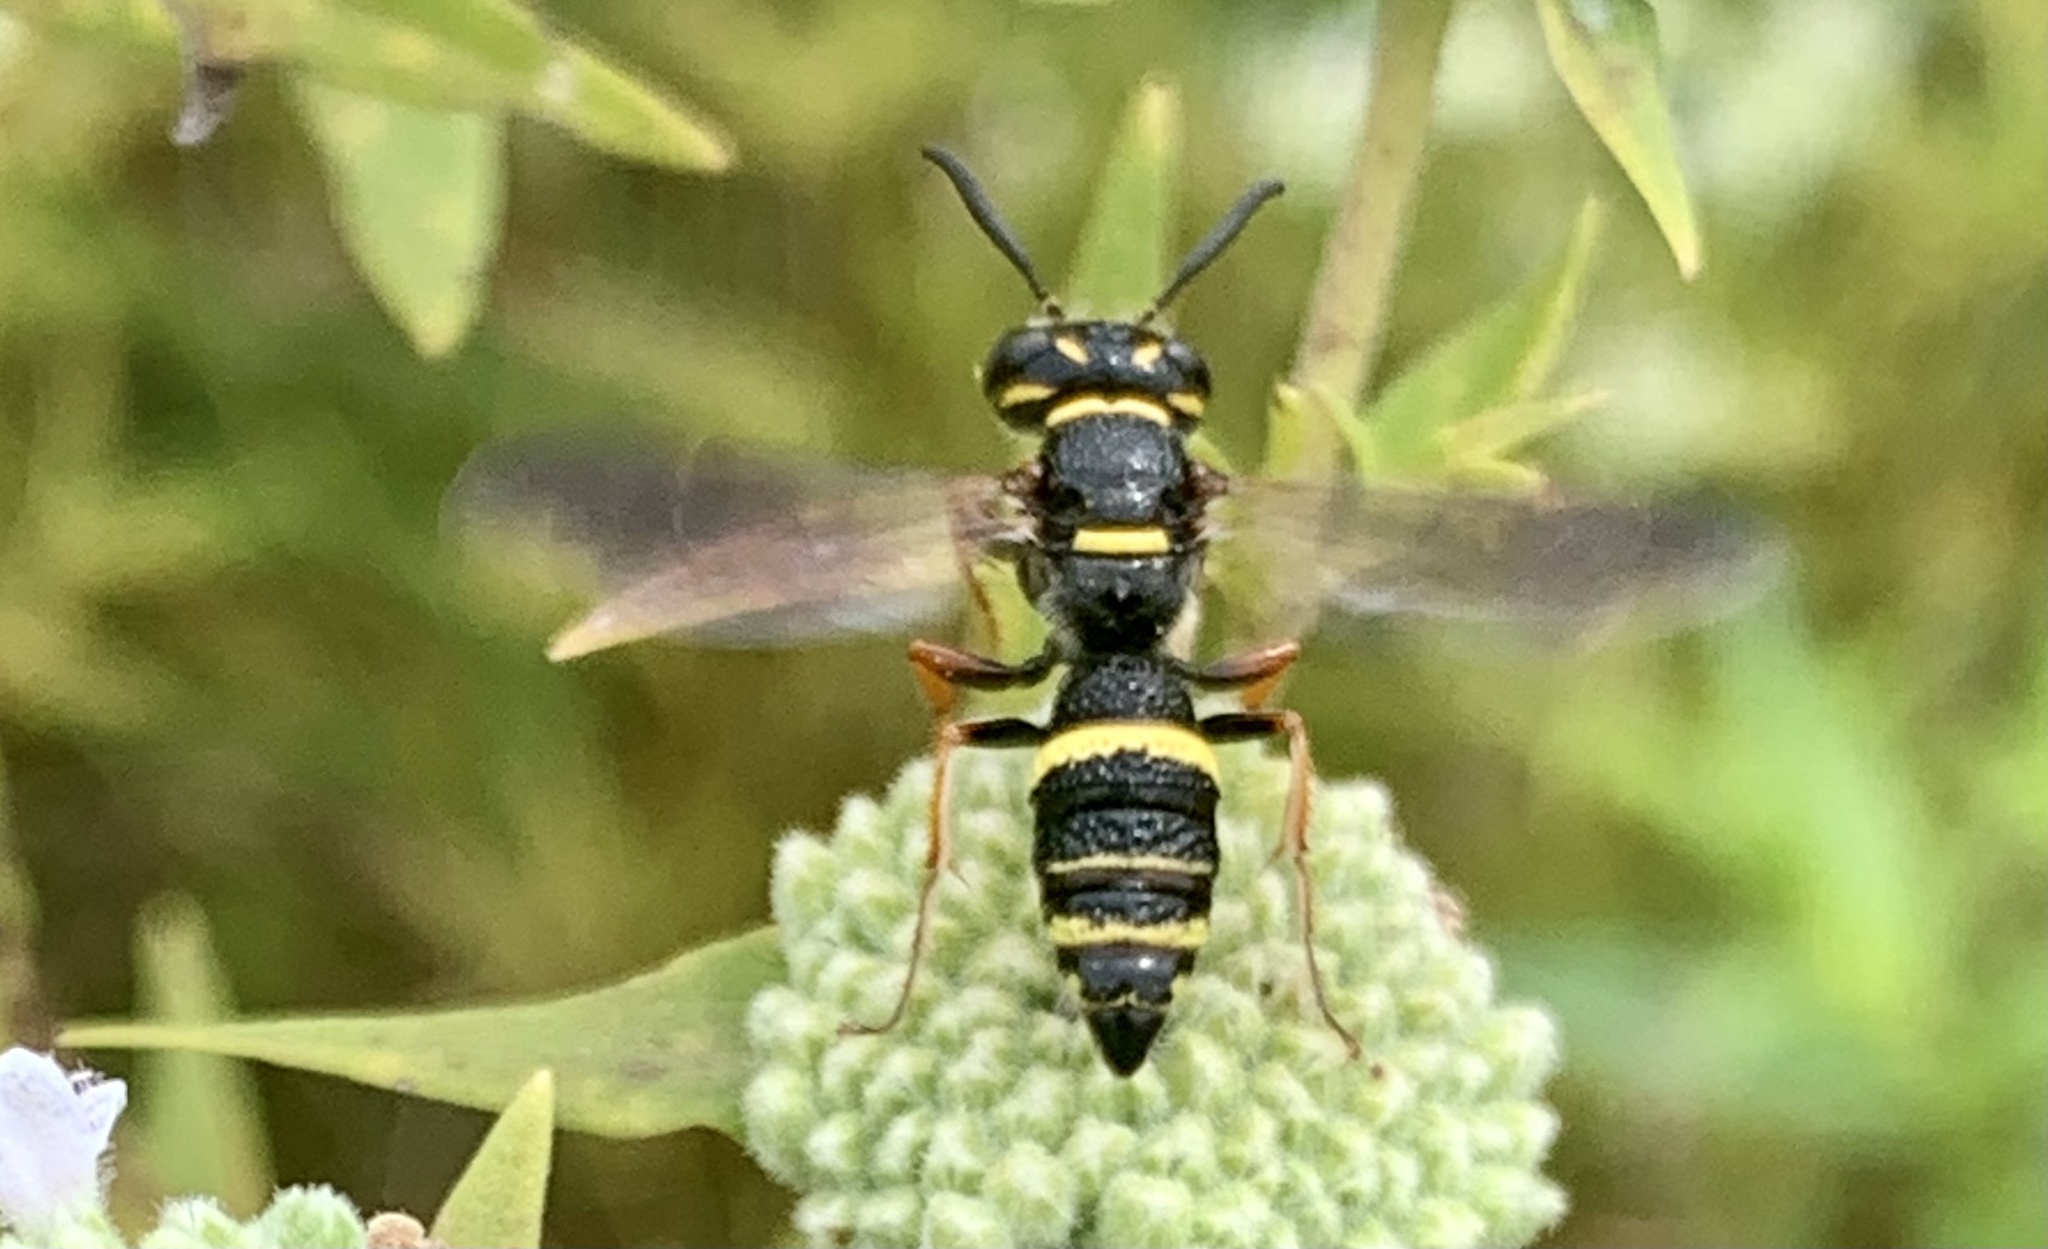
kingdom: Animalia
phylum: Arthropoda
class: Insecta
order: Hymenoptera
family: Crabronidae
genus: Philanthus
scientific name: Philanthus gibbosus
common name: Humped beewolf
